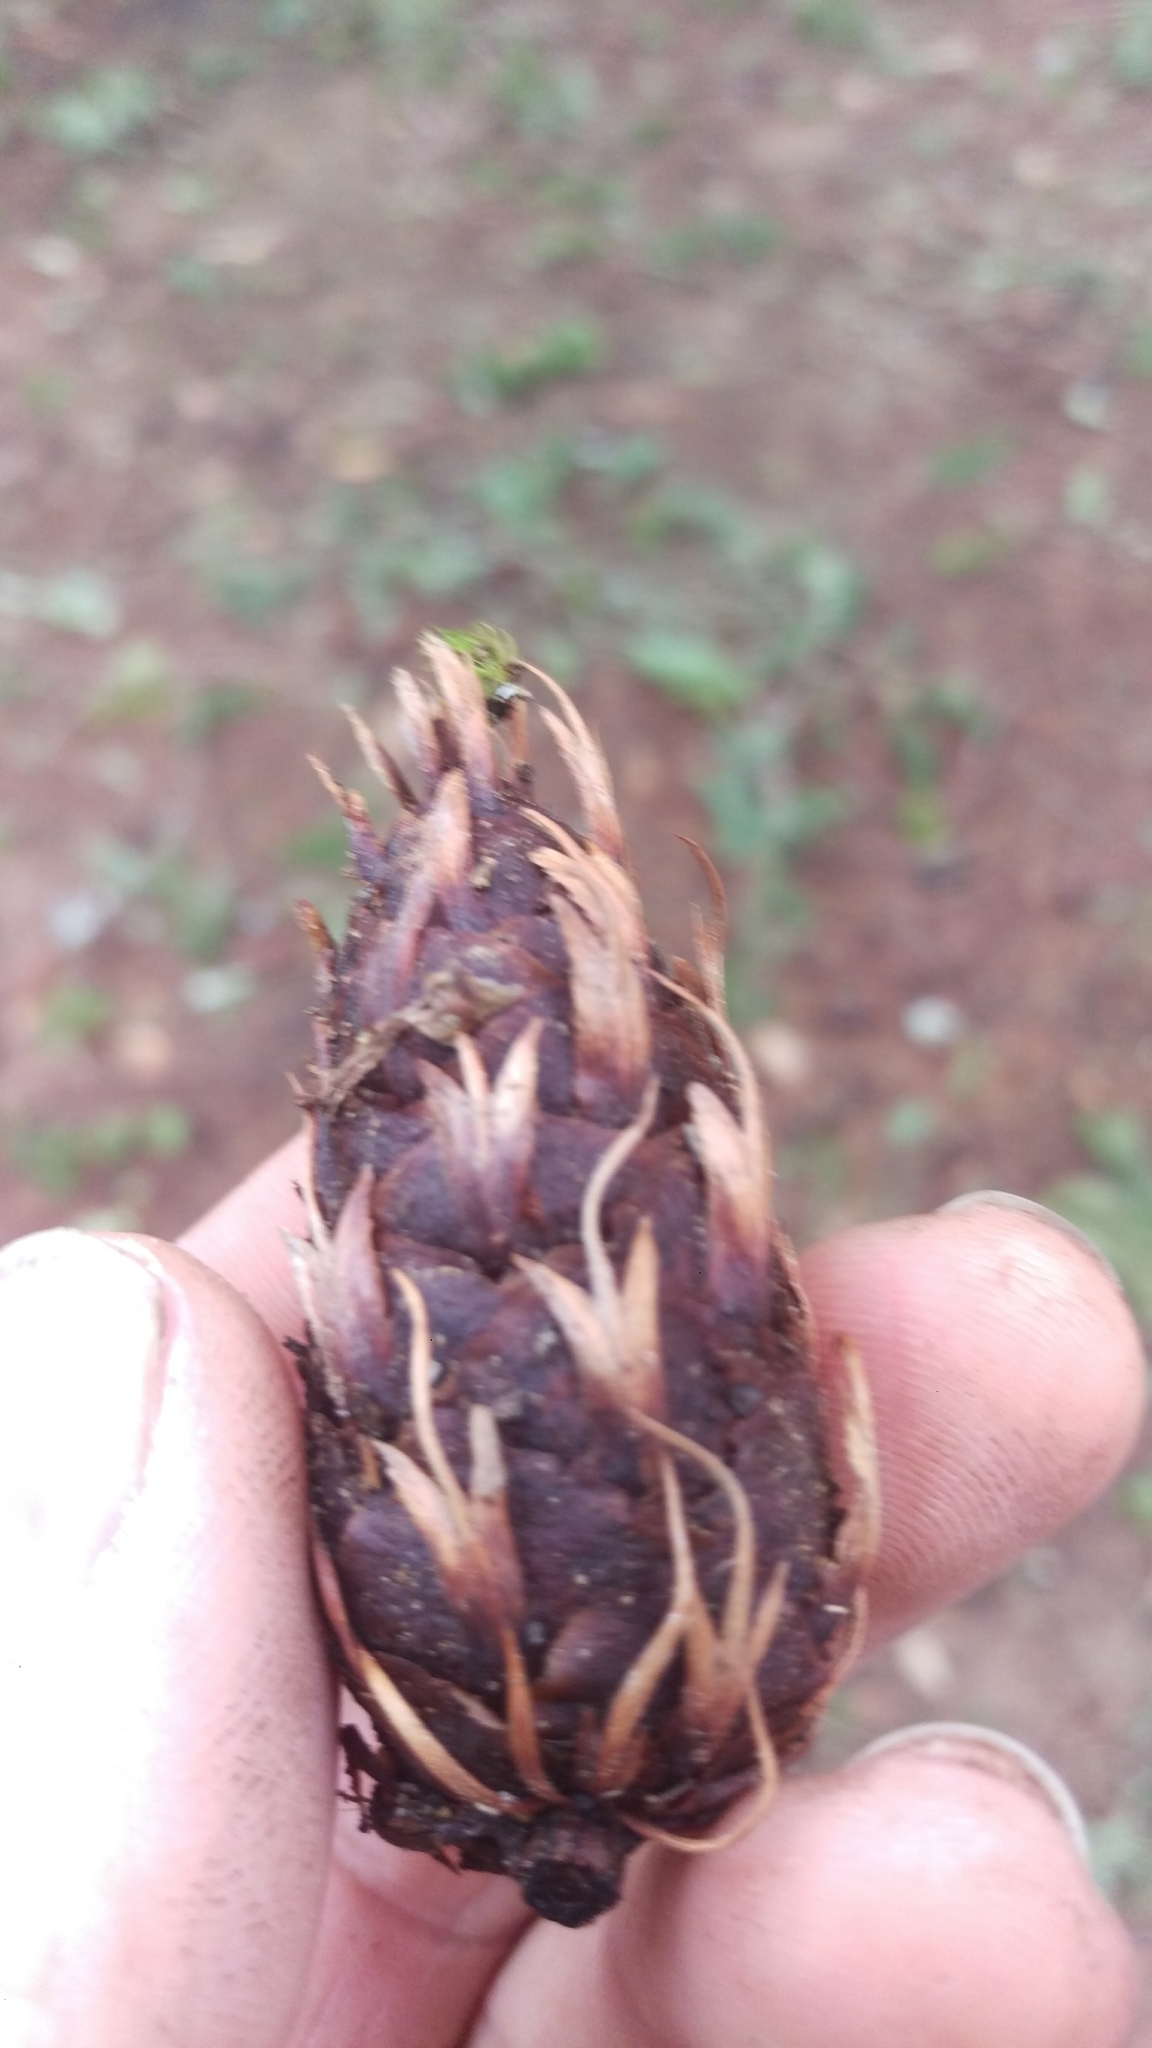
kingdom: Plantae
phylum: Tracheophyta
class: Pinopsida
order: Pinales
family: Pinaceae
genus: Pseudotsuga
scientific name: Pseudotsuga menziesii
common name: Douglas fir
